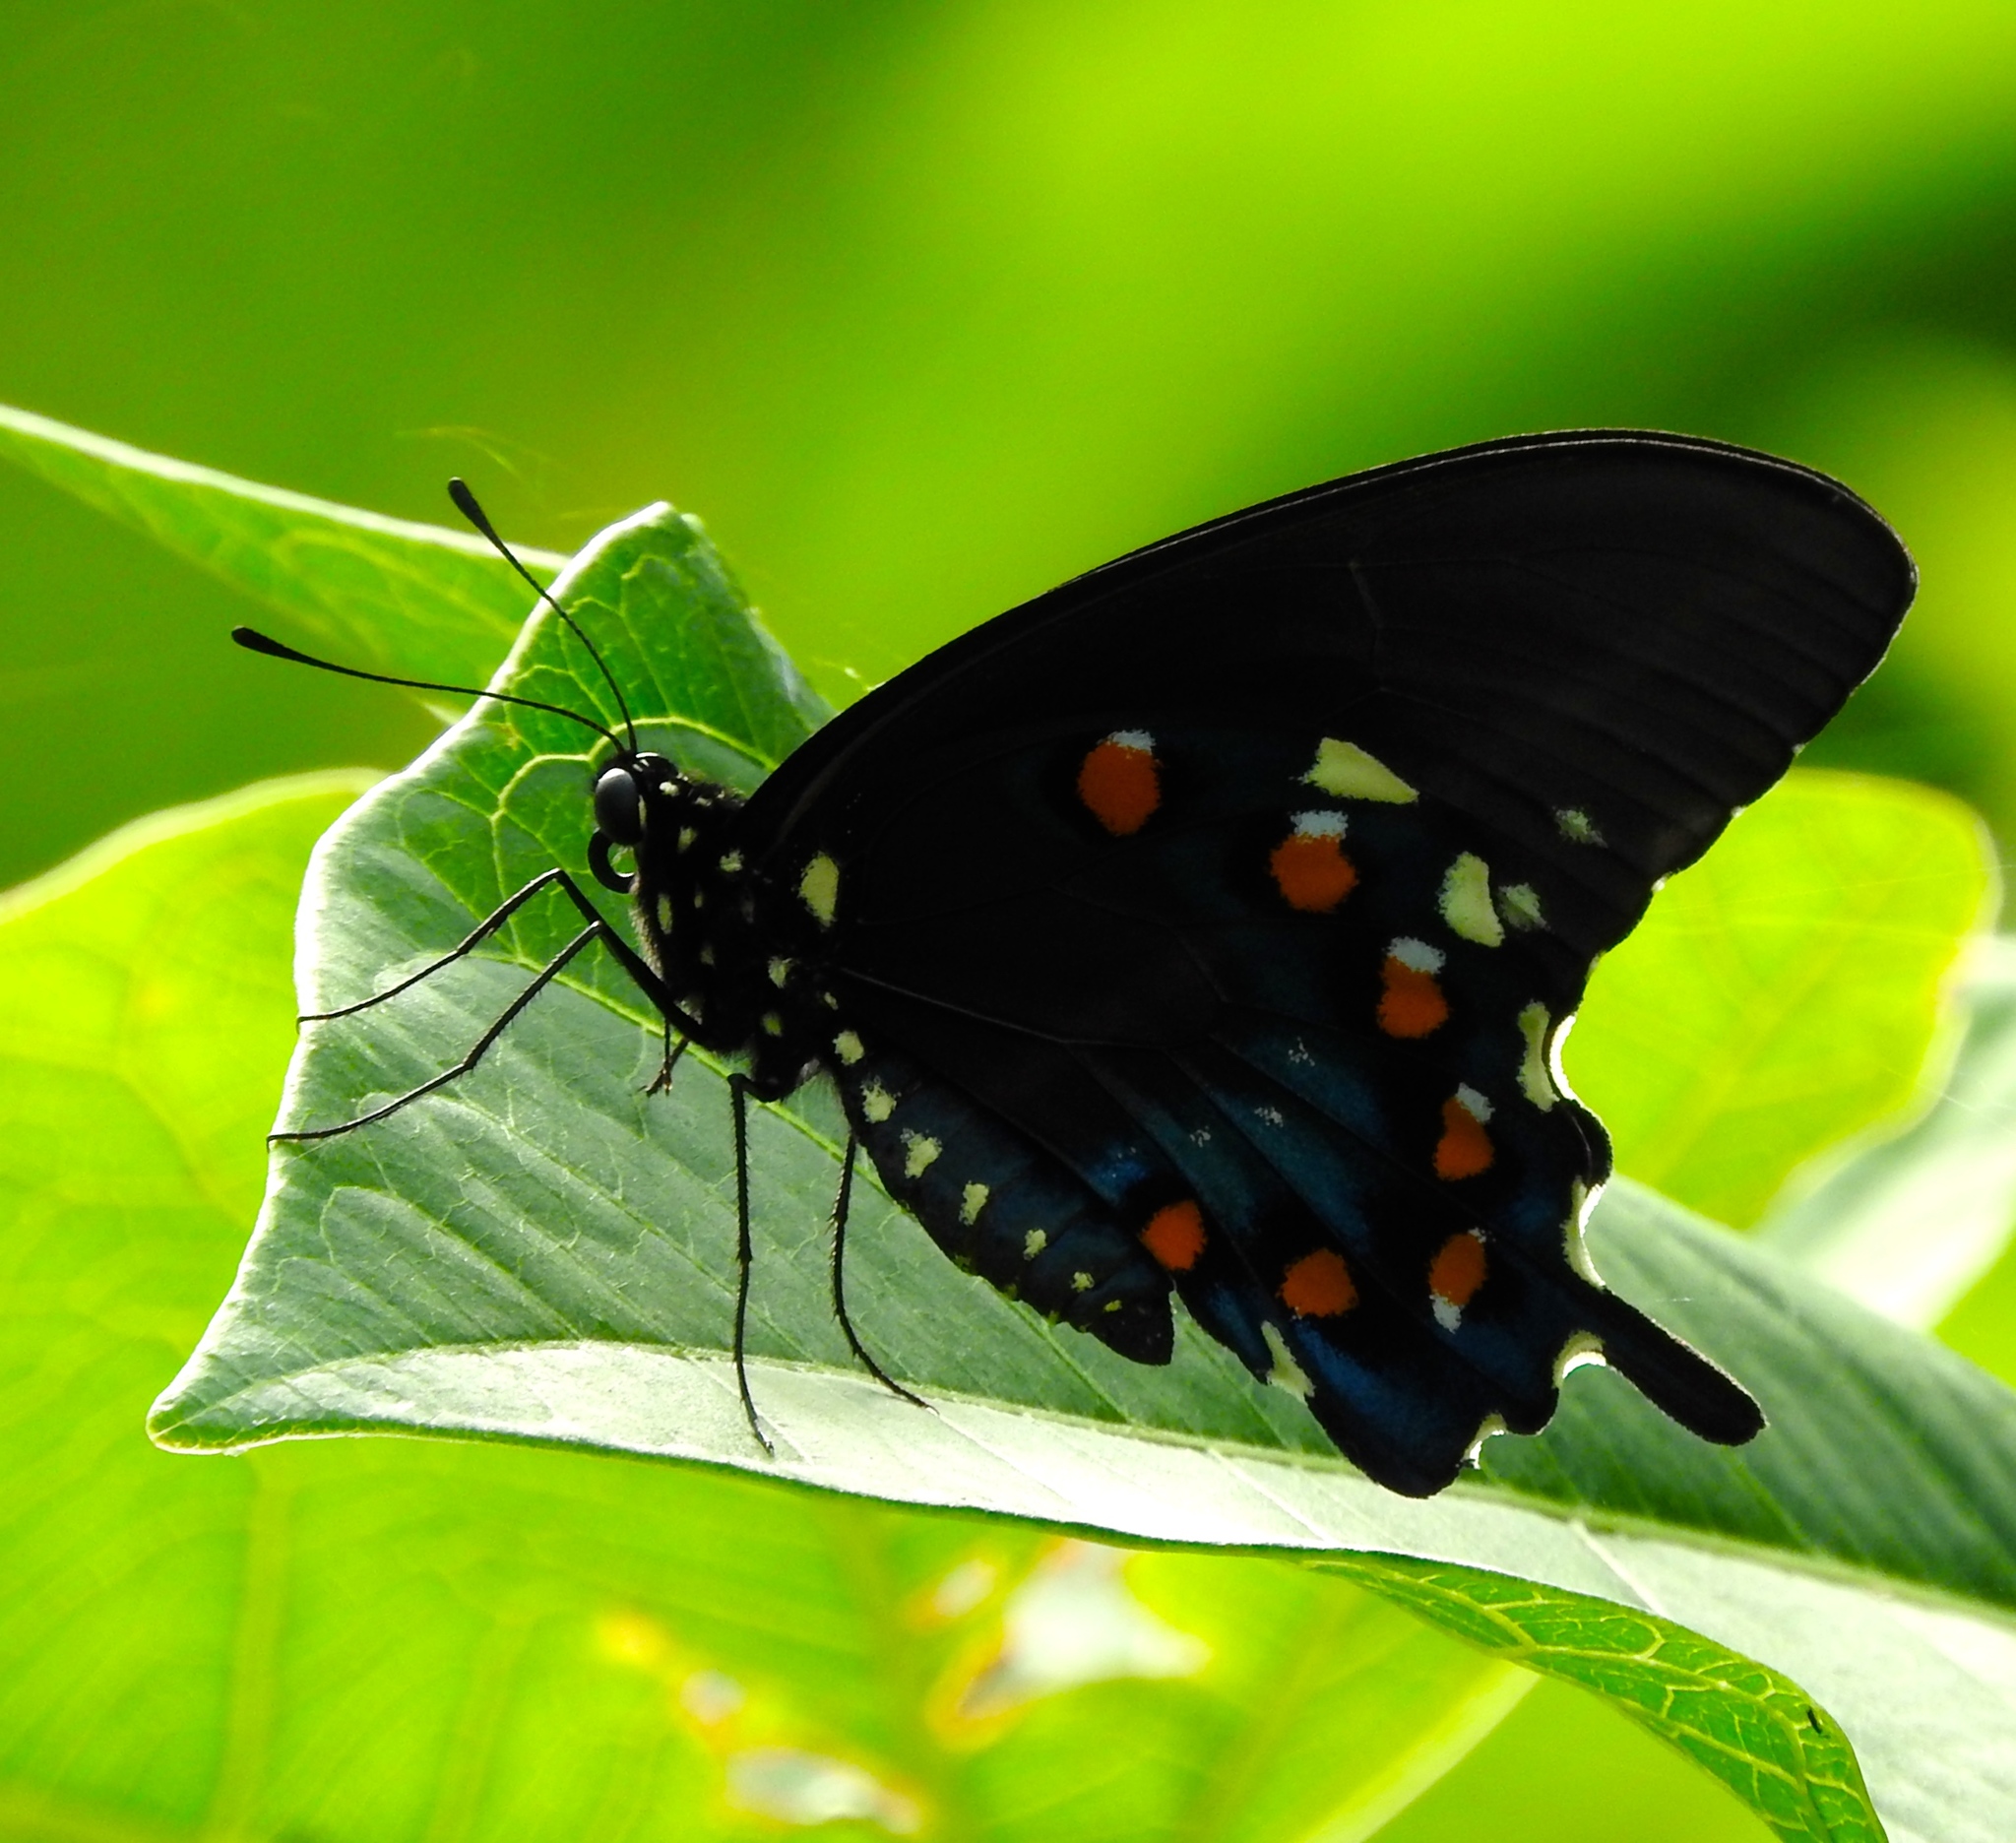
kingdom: Animalia
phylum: Arthropoda
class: Insecta
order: Lepidoptera
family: Papilionidae
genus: Battus
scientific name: Battus philenor
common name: Pipevine swallowtail
